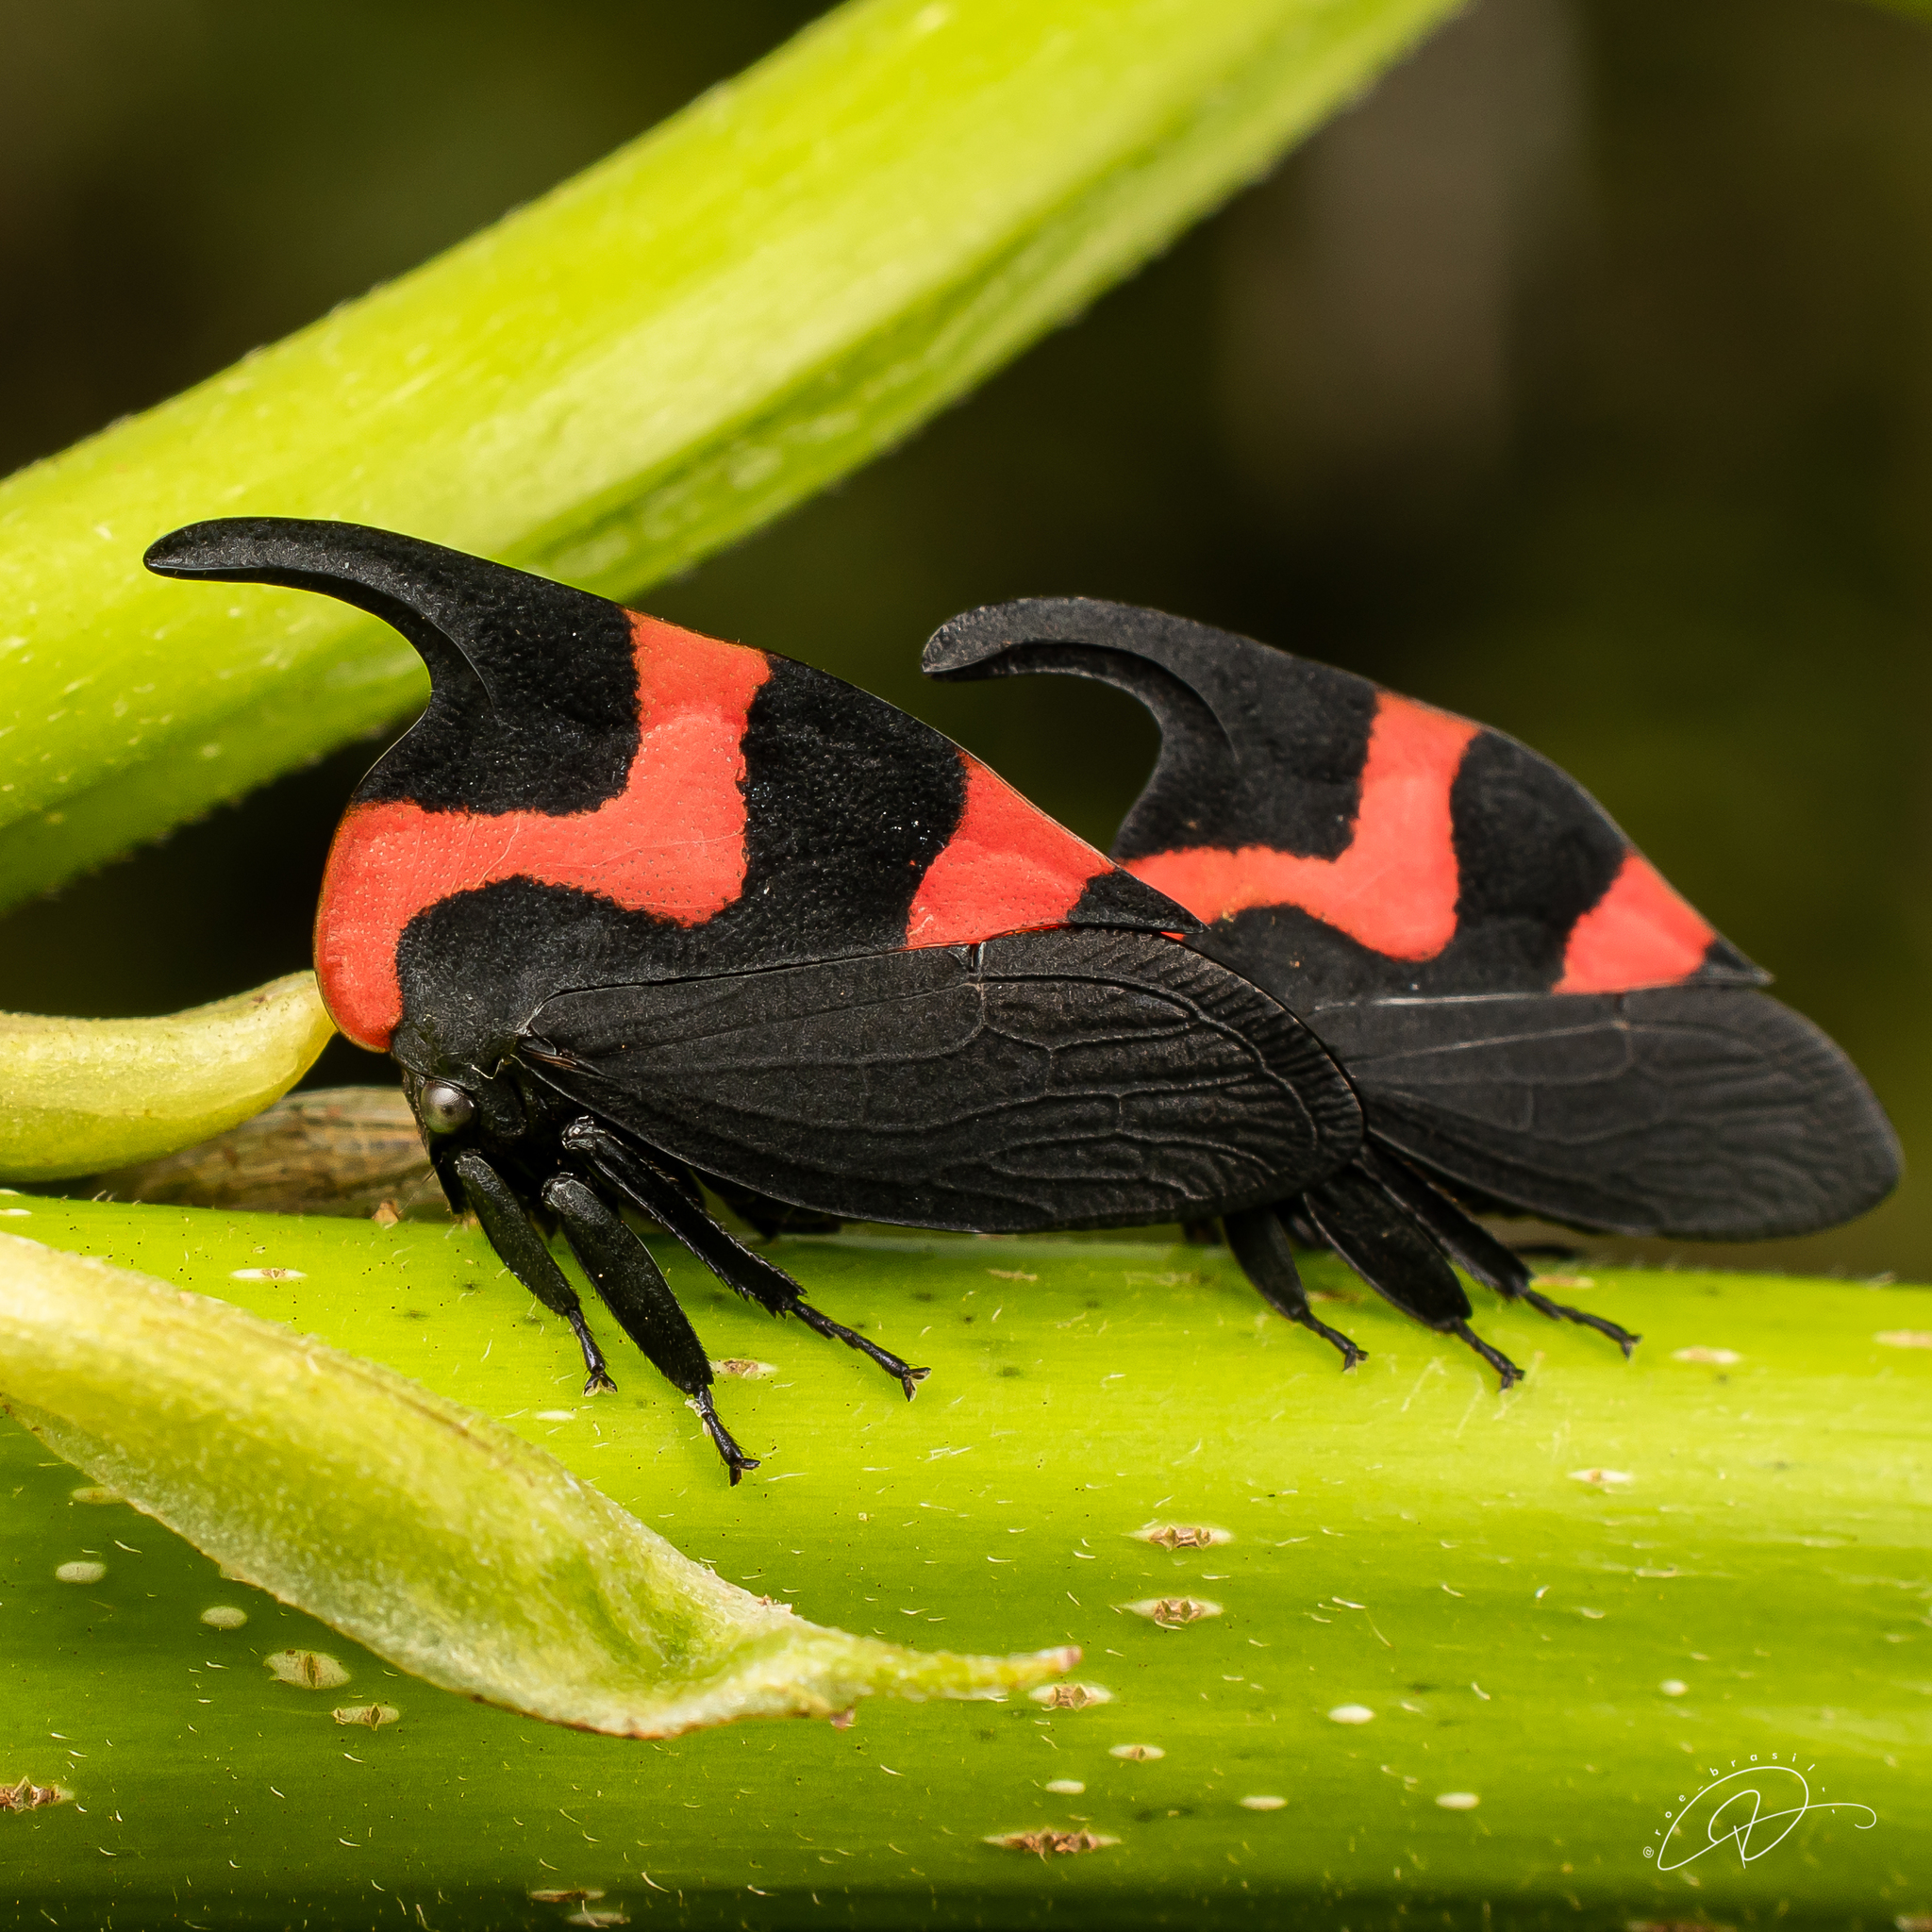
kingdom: Animalia
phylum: Arthropoda
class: Insecta
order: Hemiptera
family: Membracidae
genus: Enchophyllum
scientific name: Enchophyllum cruentata
